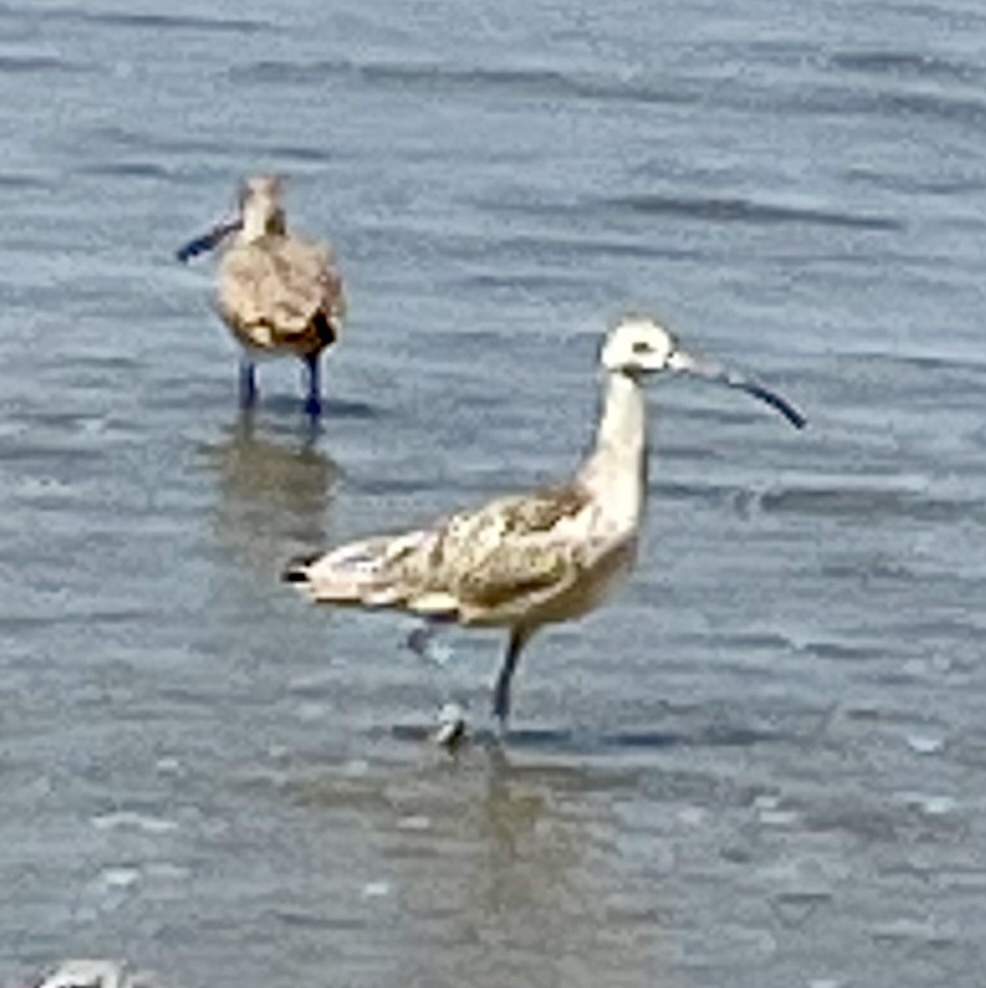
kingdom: Animalia
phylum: Chordata
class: Aves
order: Charadriiformes
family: Scolopacidae
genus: Numenius
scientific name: Numenius americanus
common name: Long-billed curlew
